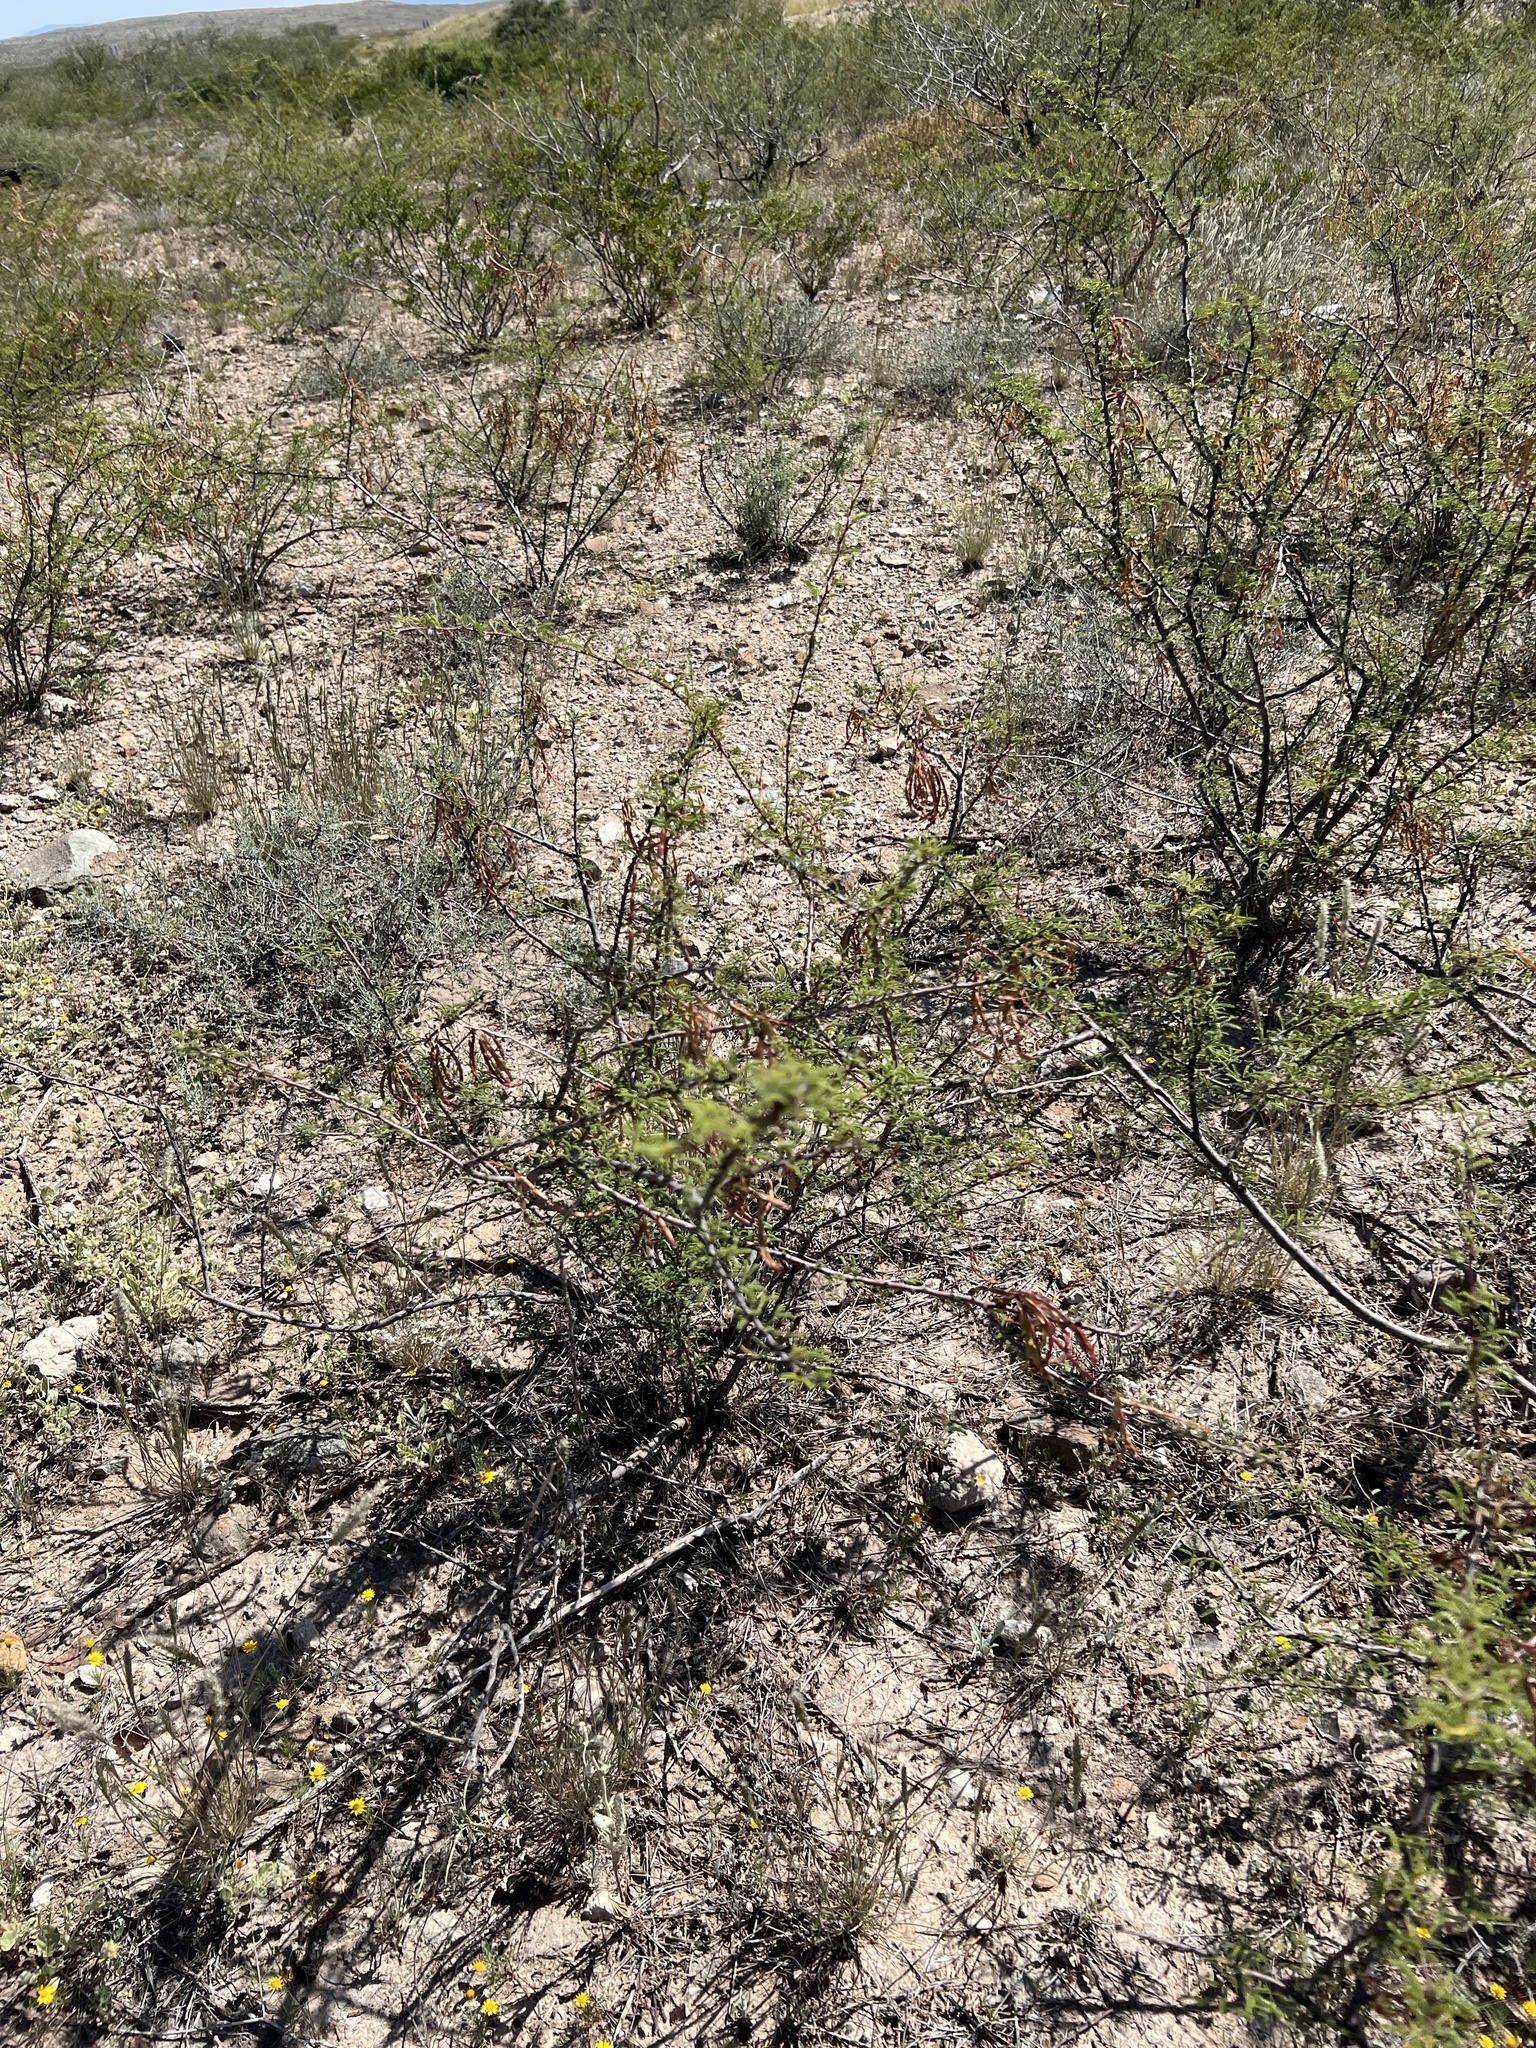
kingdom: Plantae
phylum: Tracheophyta
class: Magnoliopsida
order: Fabales
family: Fabaceae
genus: Vachellia
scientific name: Vachellia vernicosa
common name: Viscid acacia
